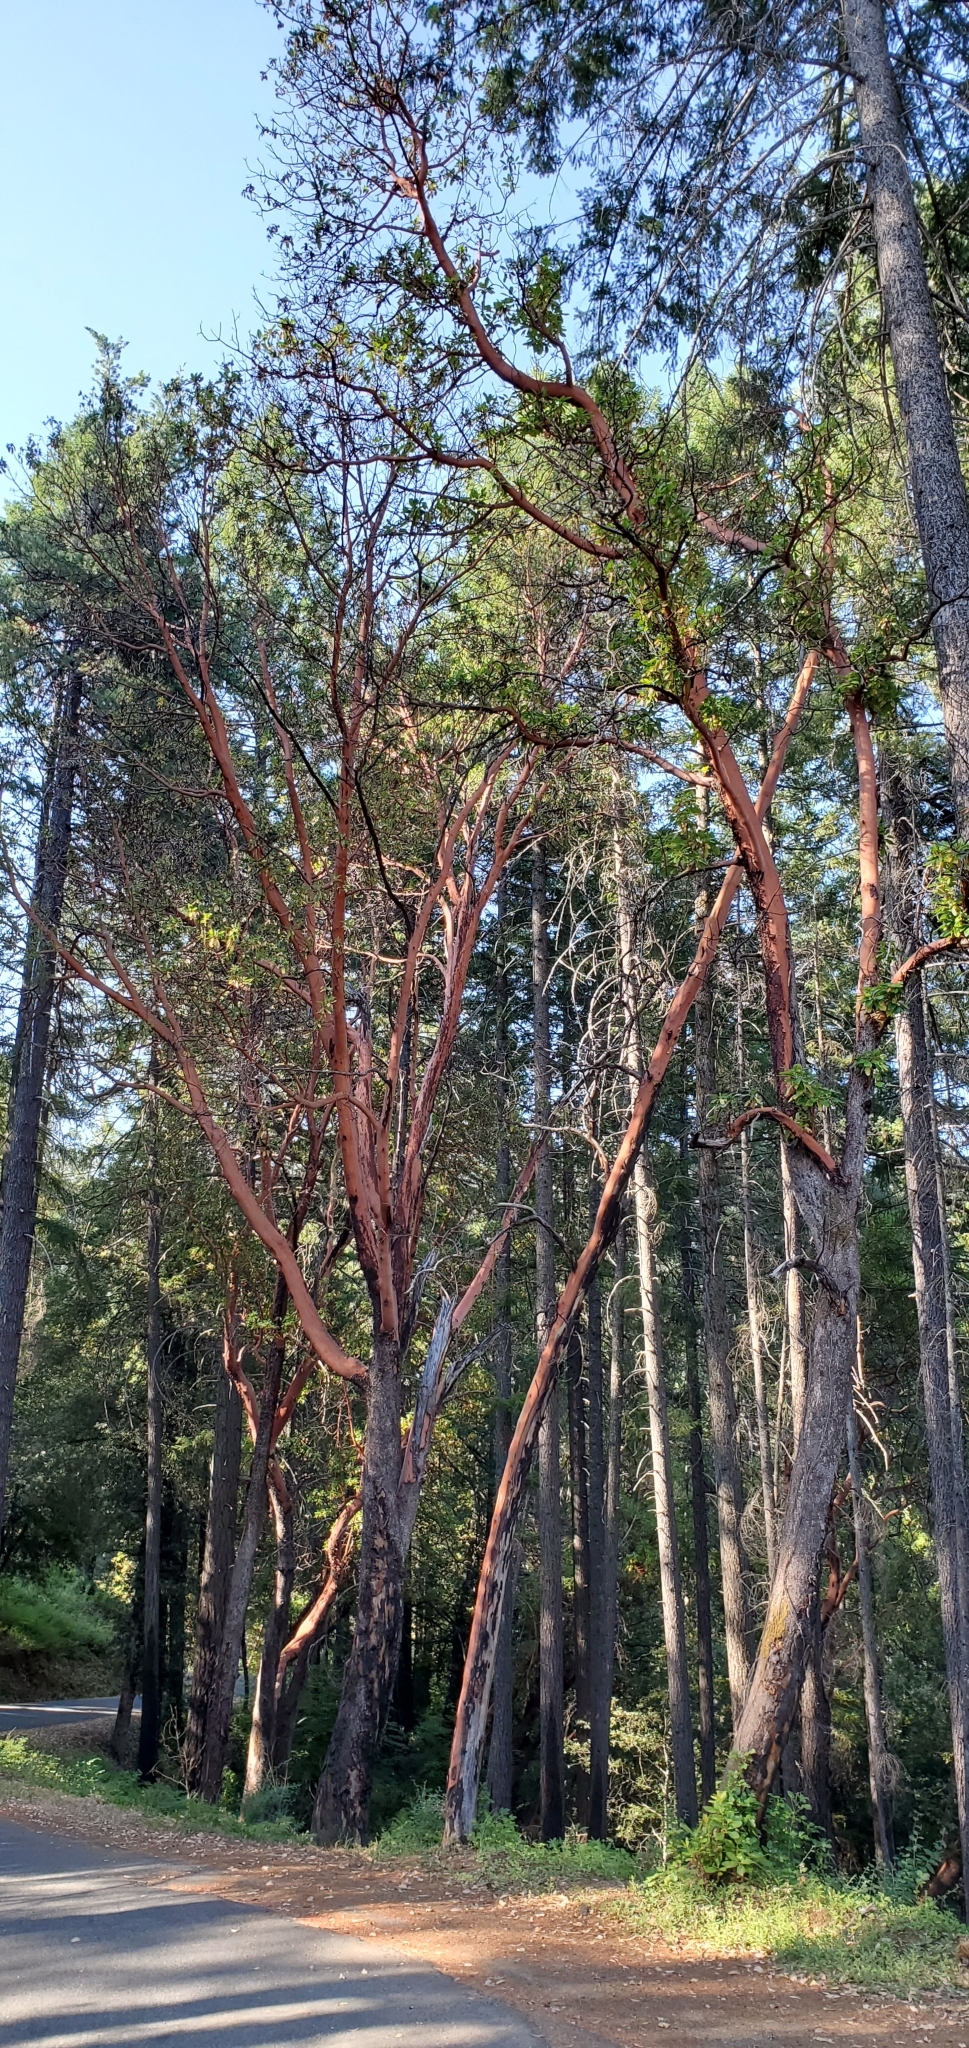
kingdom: Plantae
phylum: Tracheophyta
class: Magnoliopsida
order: Ericales
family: Ericaceae
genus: Arbutus
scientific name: Arbutus menziesii
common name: Pacific madrone
